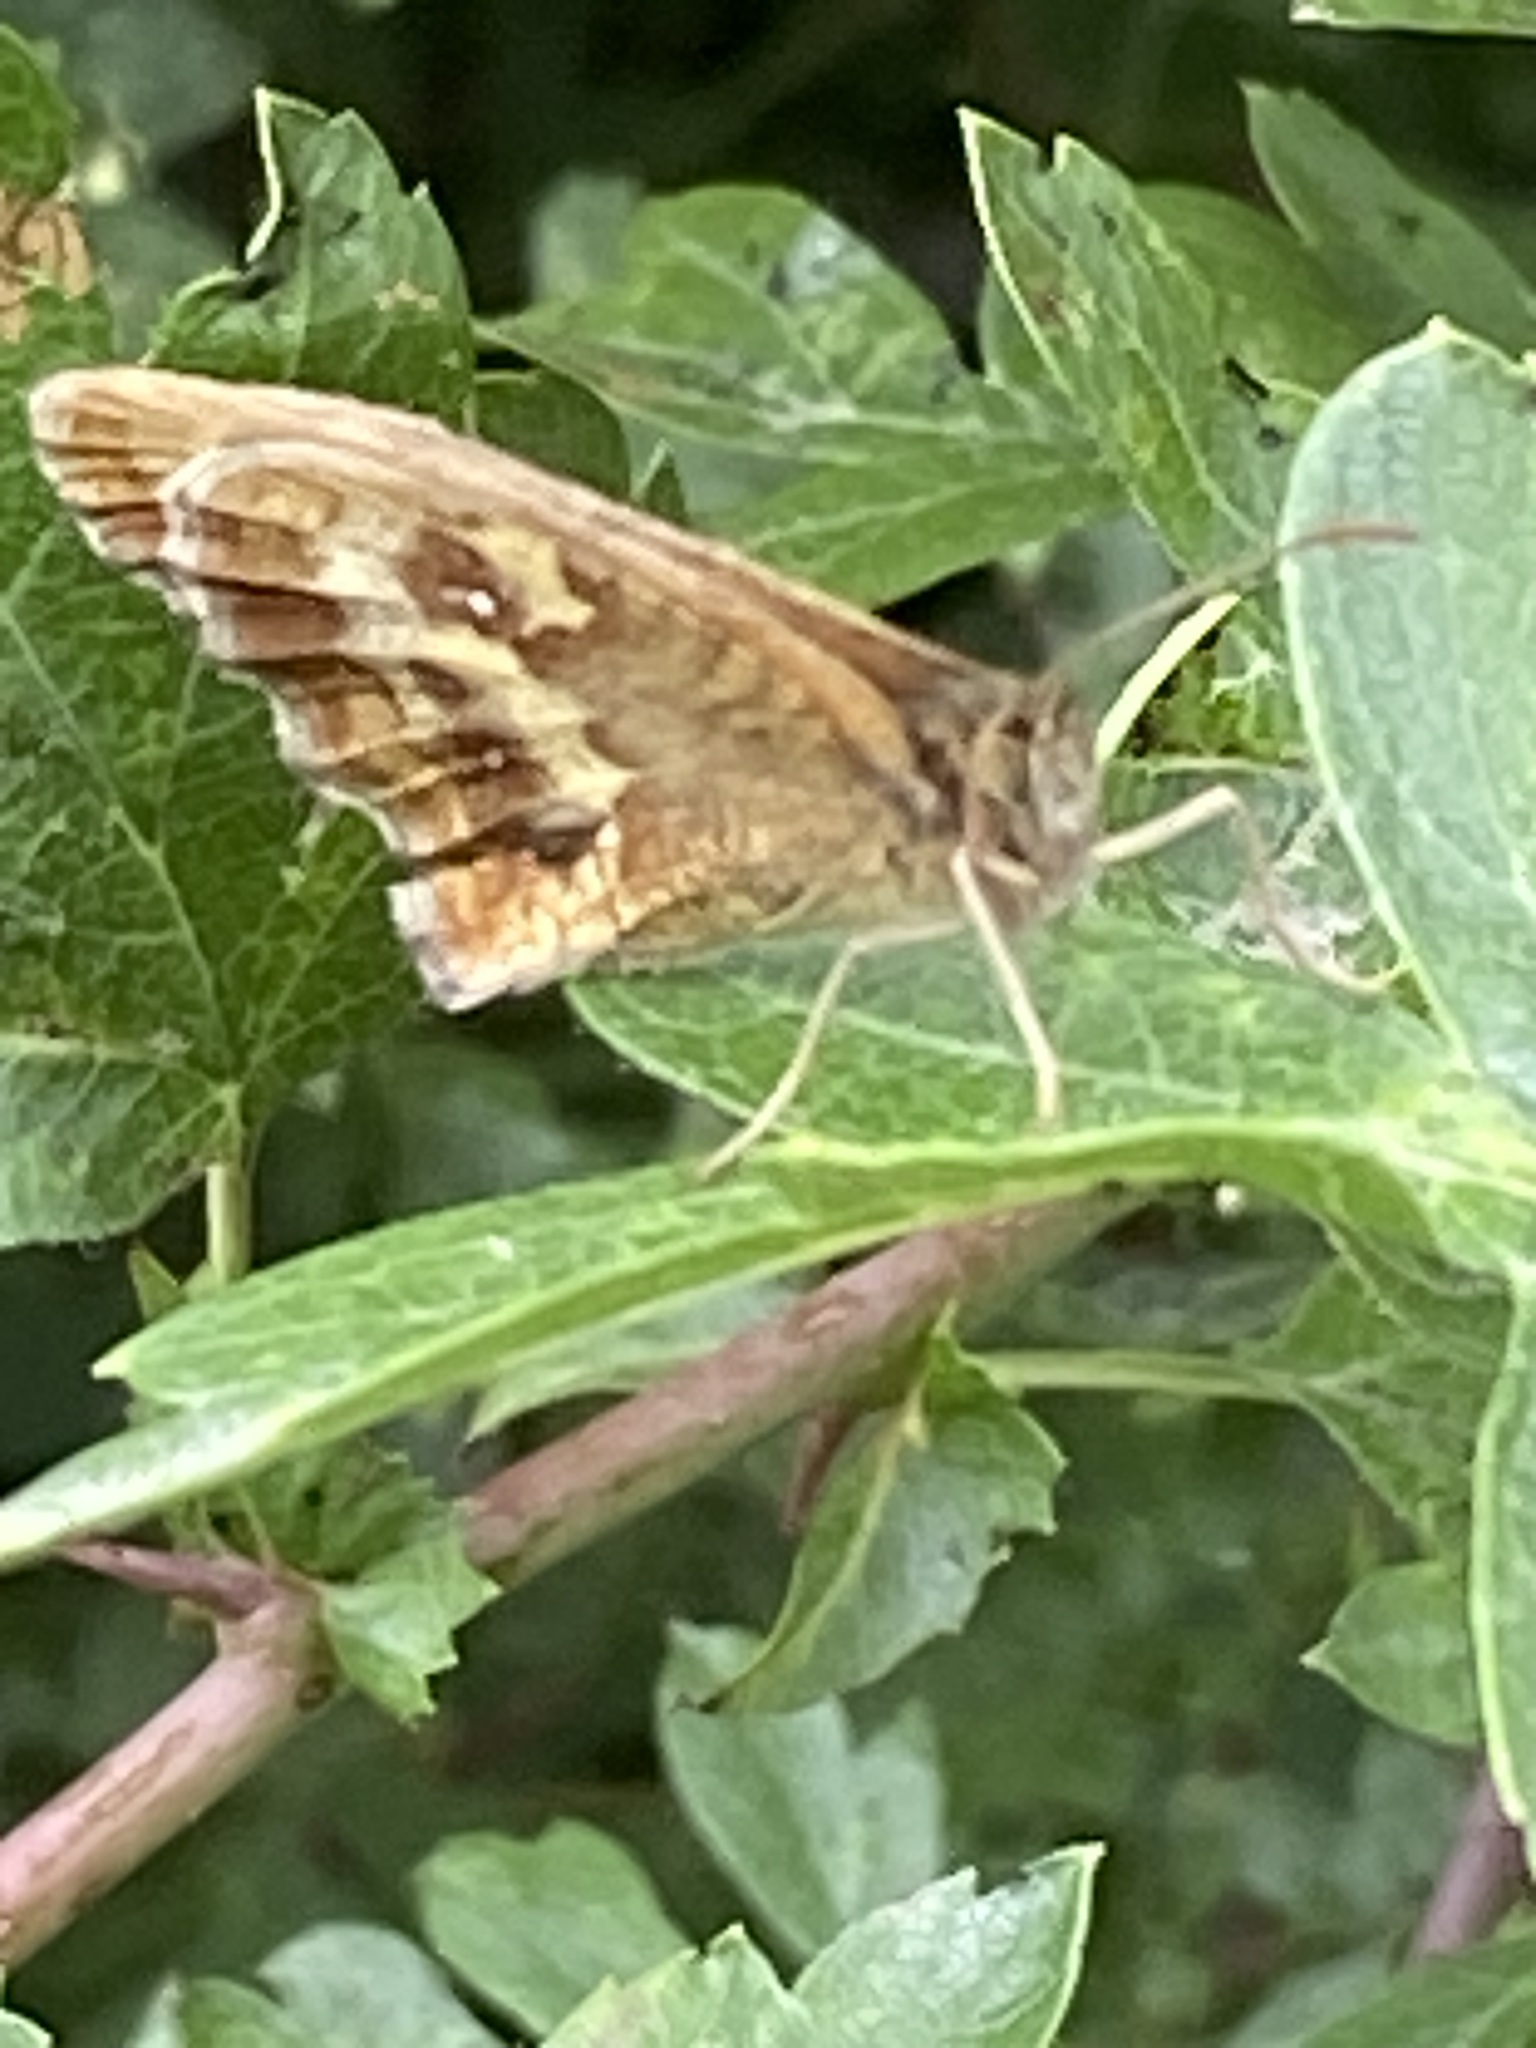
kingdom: Animalia
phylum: Arthropoda
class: Insecta
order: Lepidoptera
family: Nymphalidae
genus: Pyronia
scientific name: Pyronia tithonus
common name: Gatekeeper
